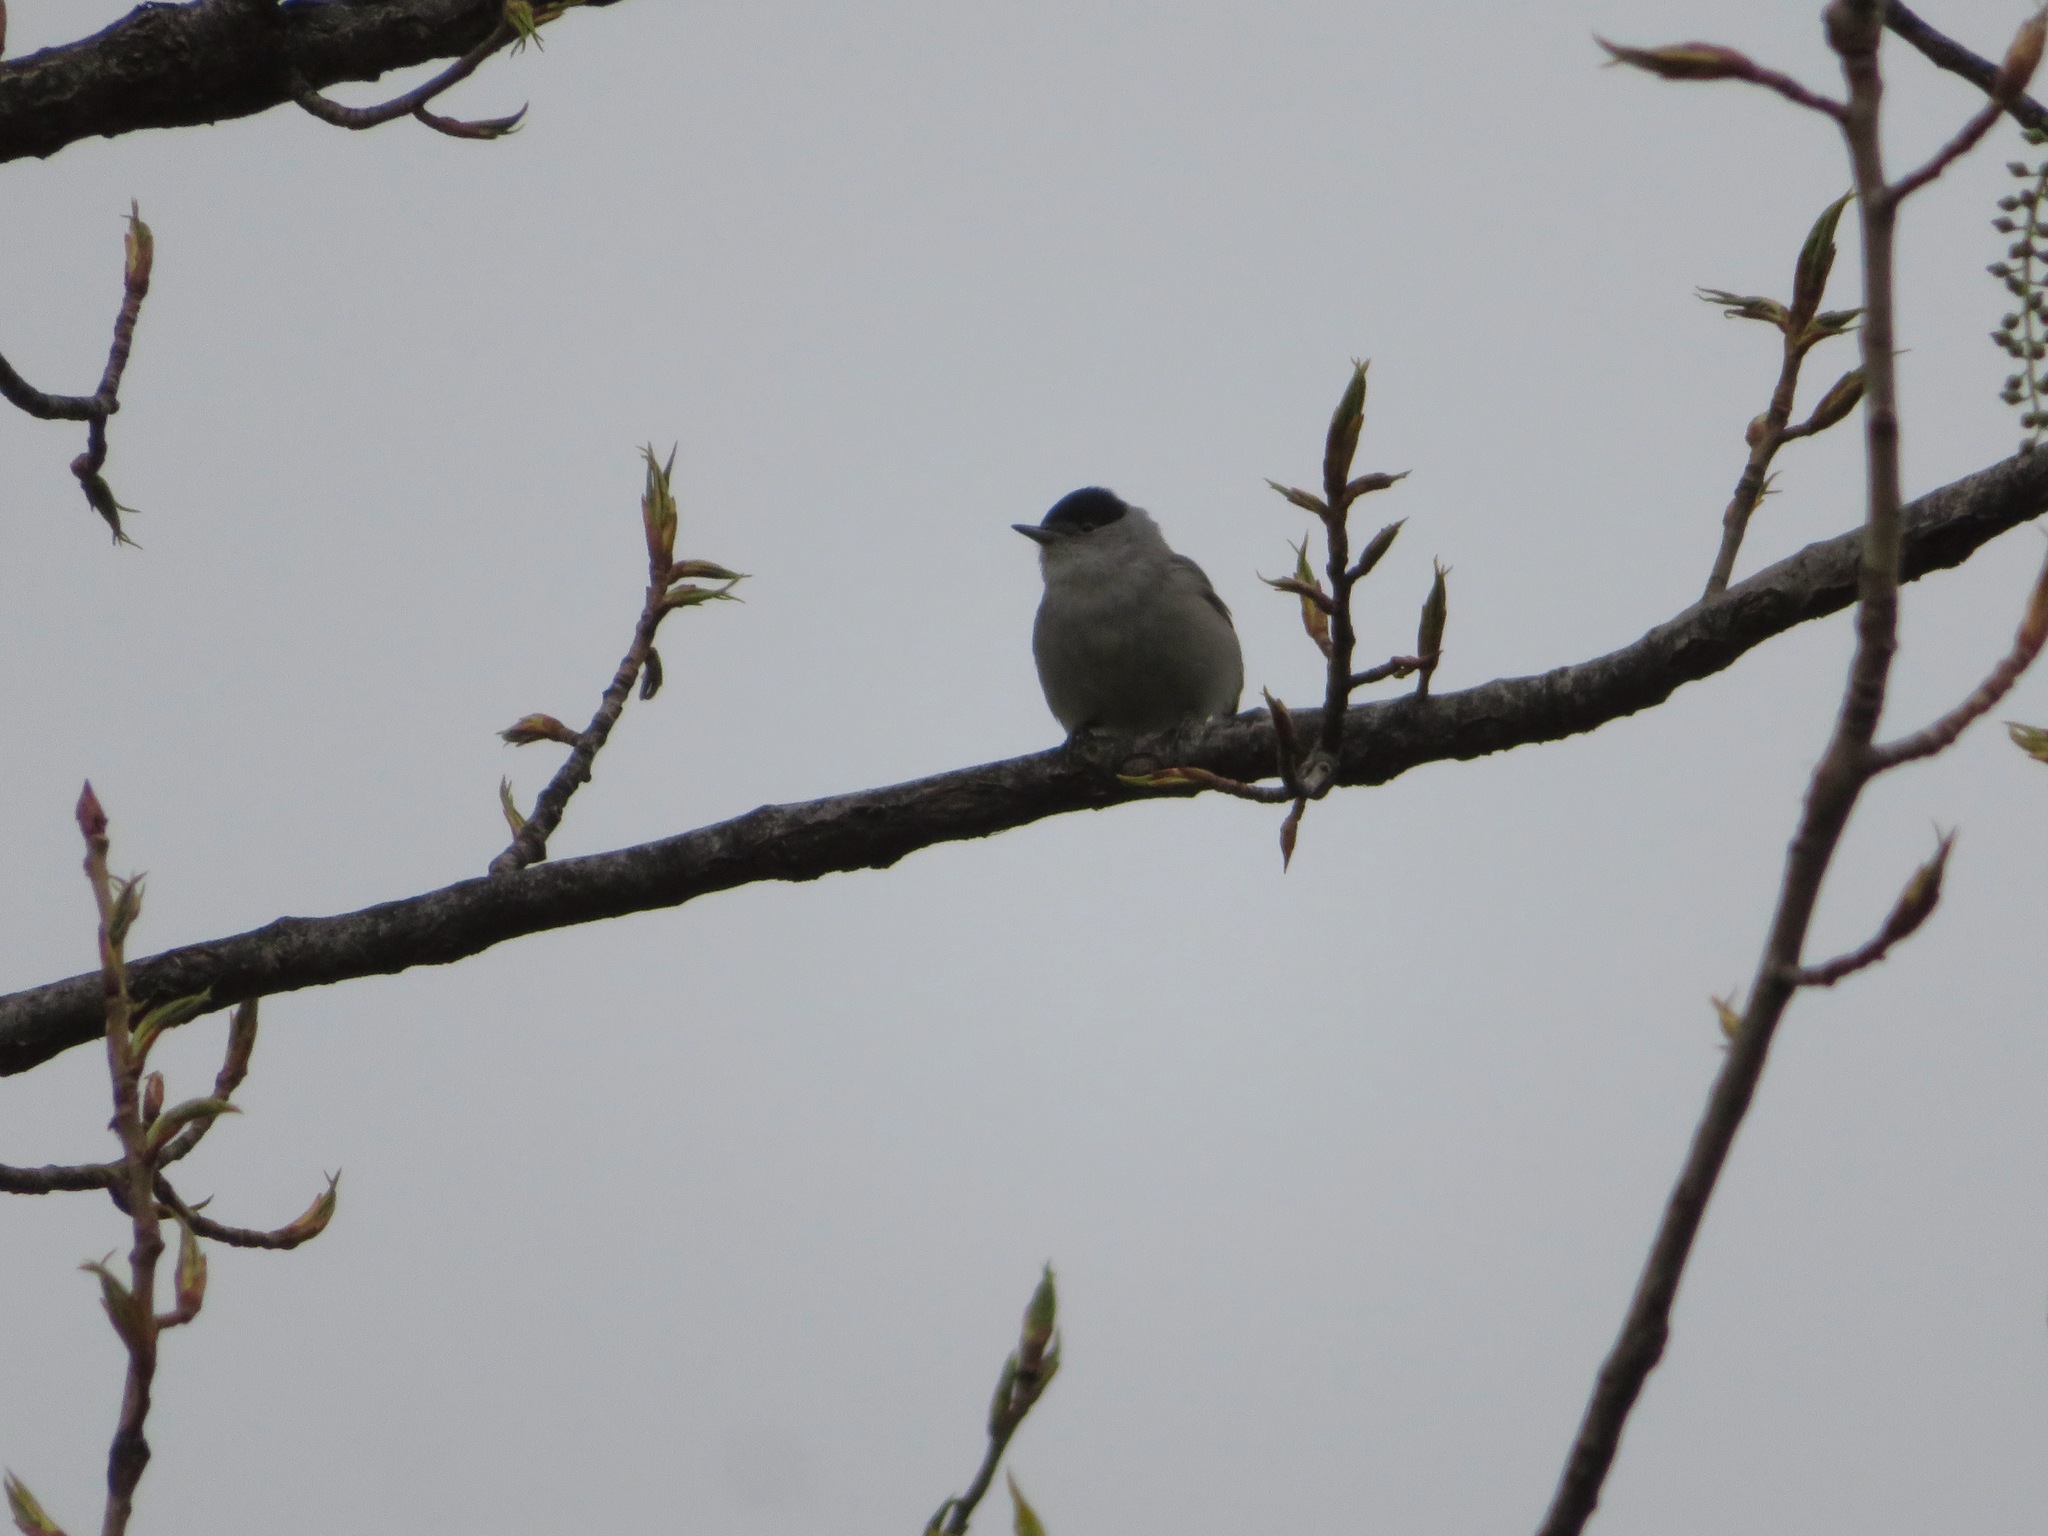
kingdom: Animalia
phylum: Chordata
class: Aves
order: Passeriformes
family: Sylviidae
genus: Sylvia
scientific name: Sylvia atricapilla
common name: Eurasian blackcap
